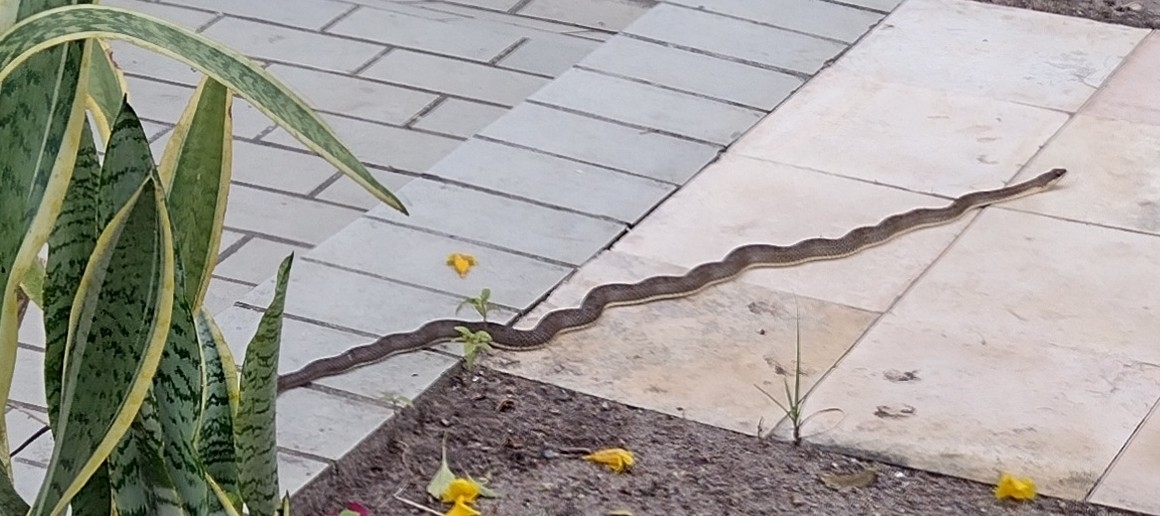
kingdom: Animalia
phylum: Chordata
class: Squamata
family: Colubridae
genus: Philodryas
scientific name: Philodryas nattereri
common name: Paraguay green racer
